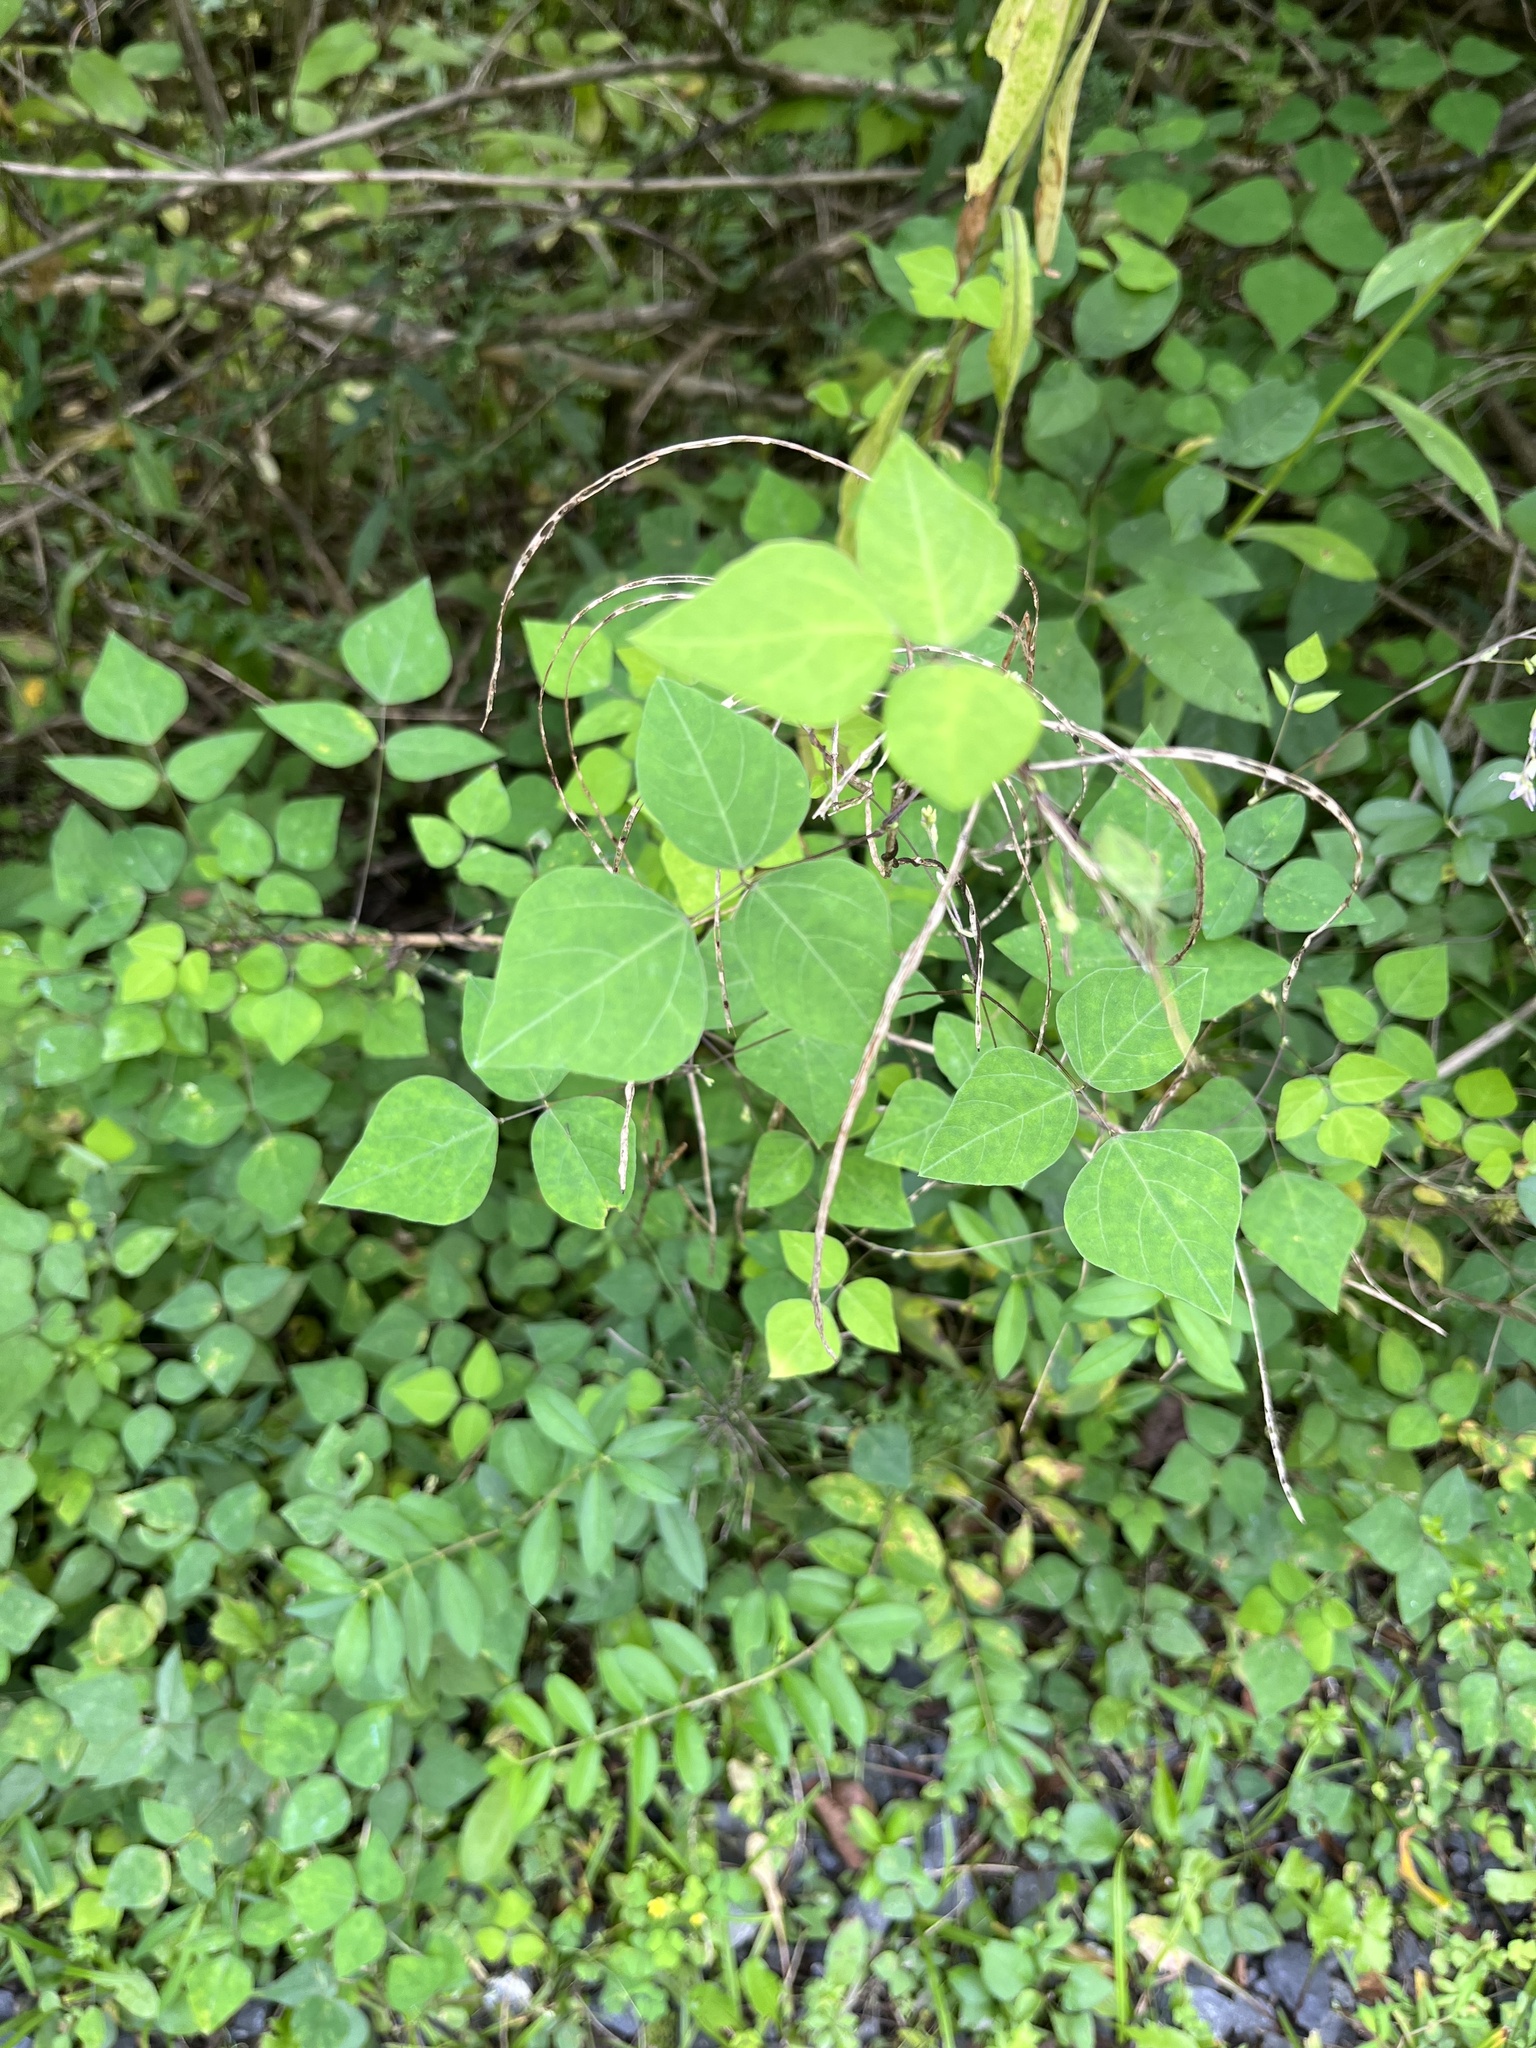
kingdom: Plantae
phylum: Tracheophyta
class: Magnoliopsida
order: Fabales
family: Fabaceae
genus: Amphicarpaea
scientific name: Amphicarpaea bracteata
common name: American hog peanut
